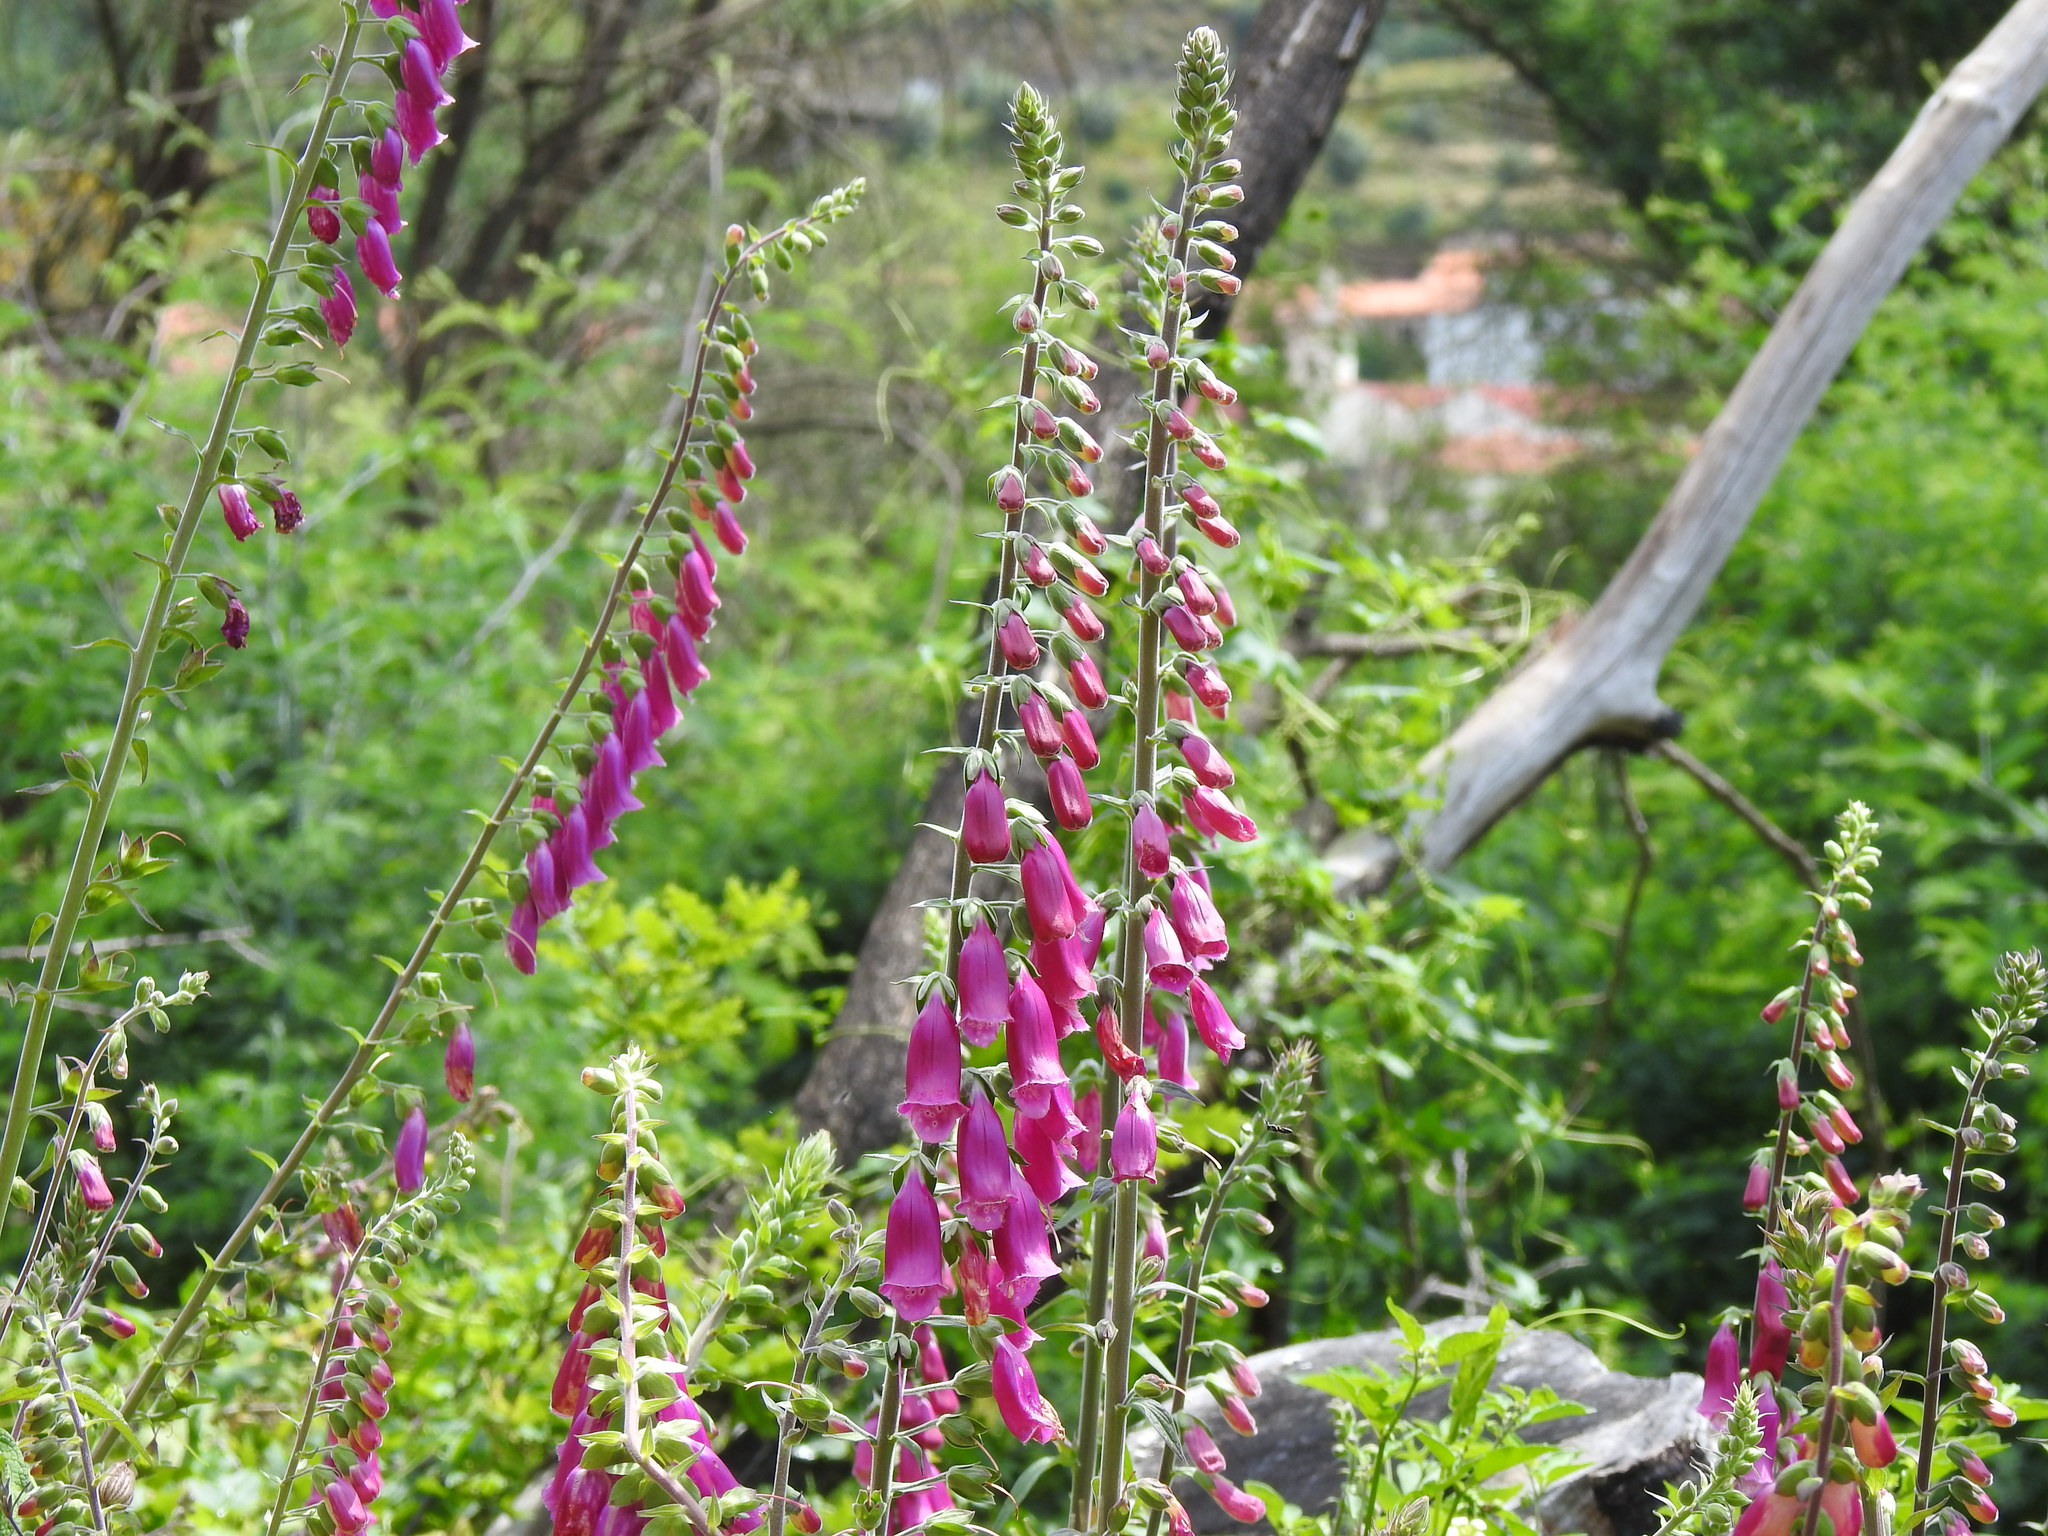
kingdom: Plantae
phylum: Tracheophyta
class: Magnoliopsida
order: Lamiales
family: Plantaginaceae
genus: Digitalis
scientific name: Digitalis purpurea
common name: Foxglove
